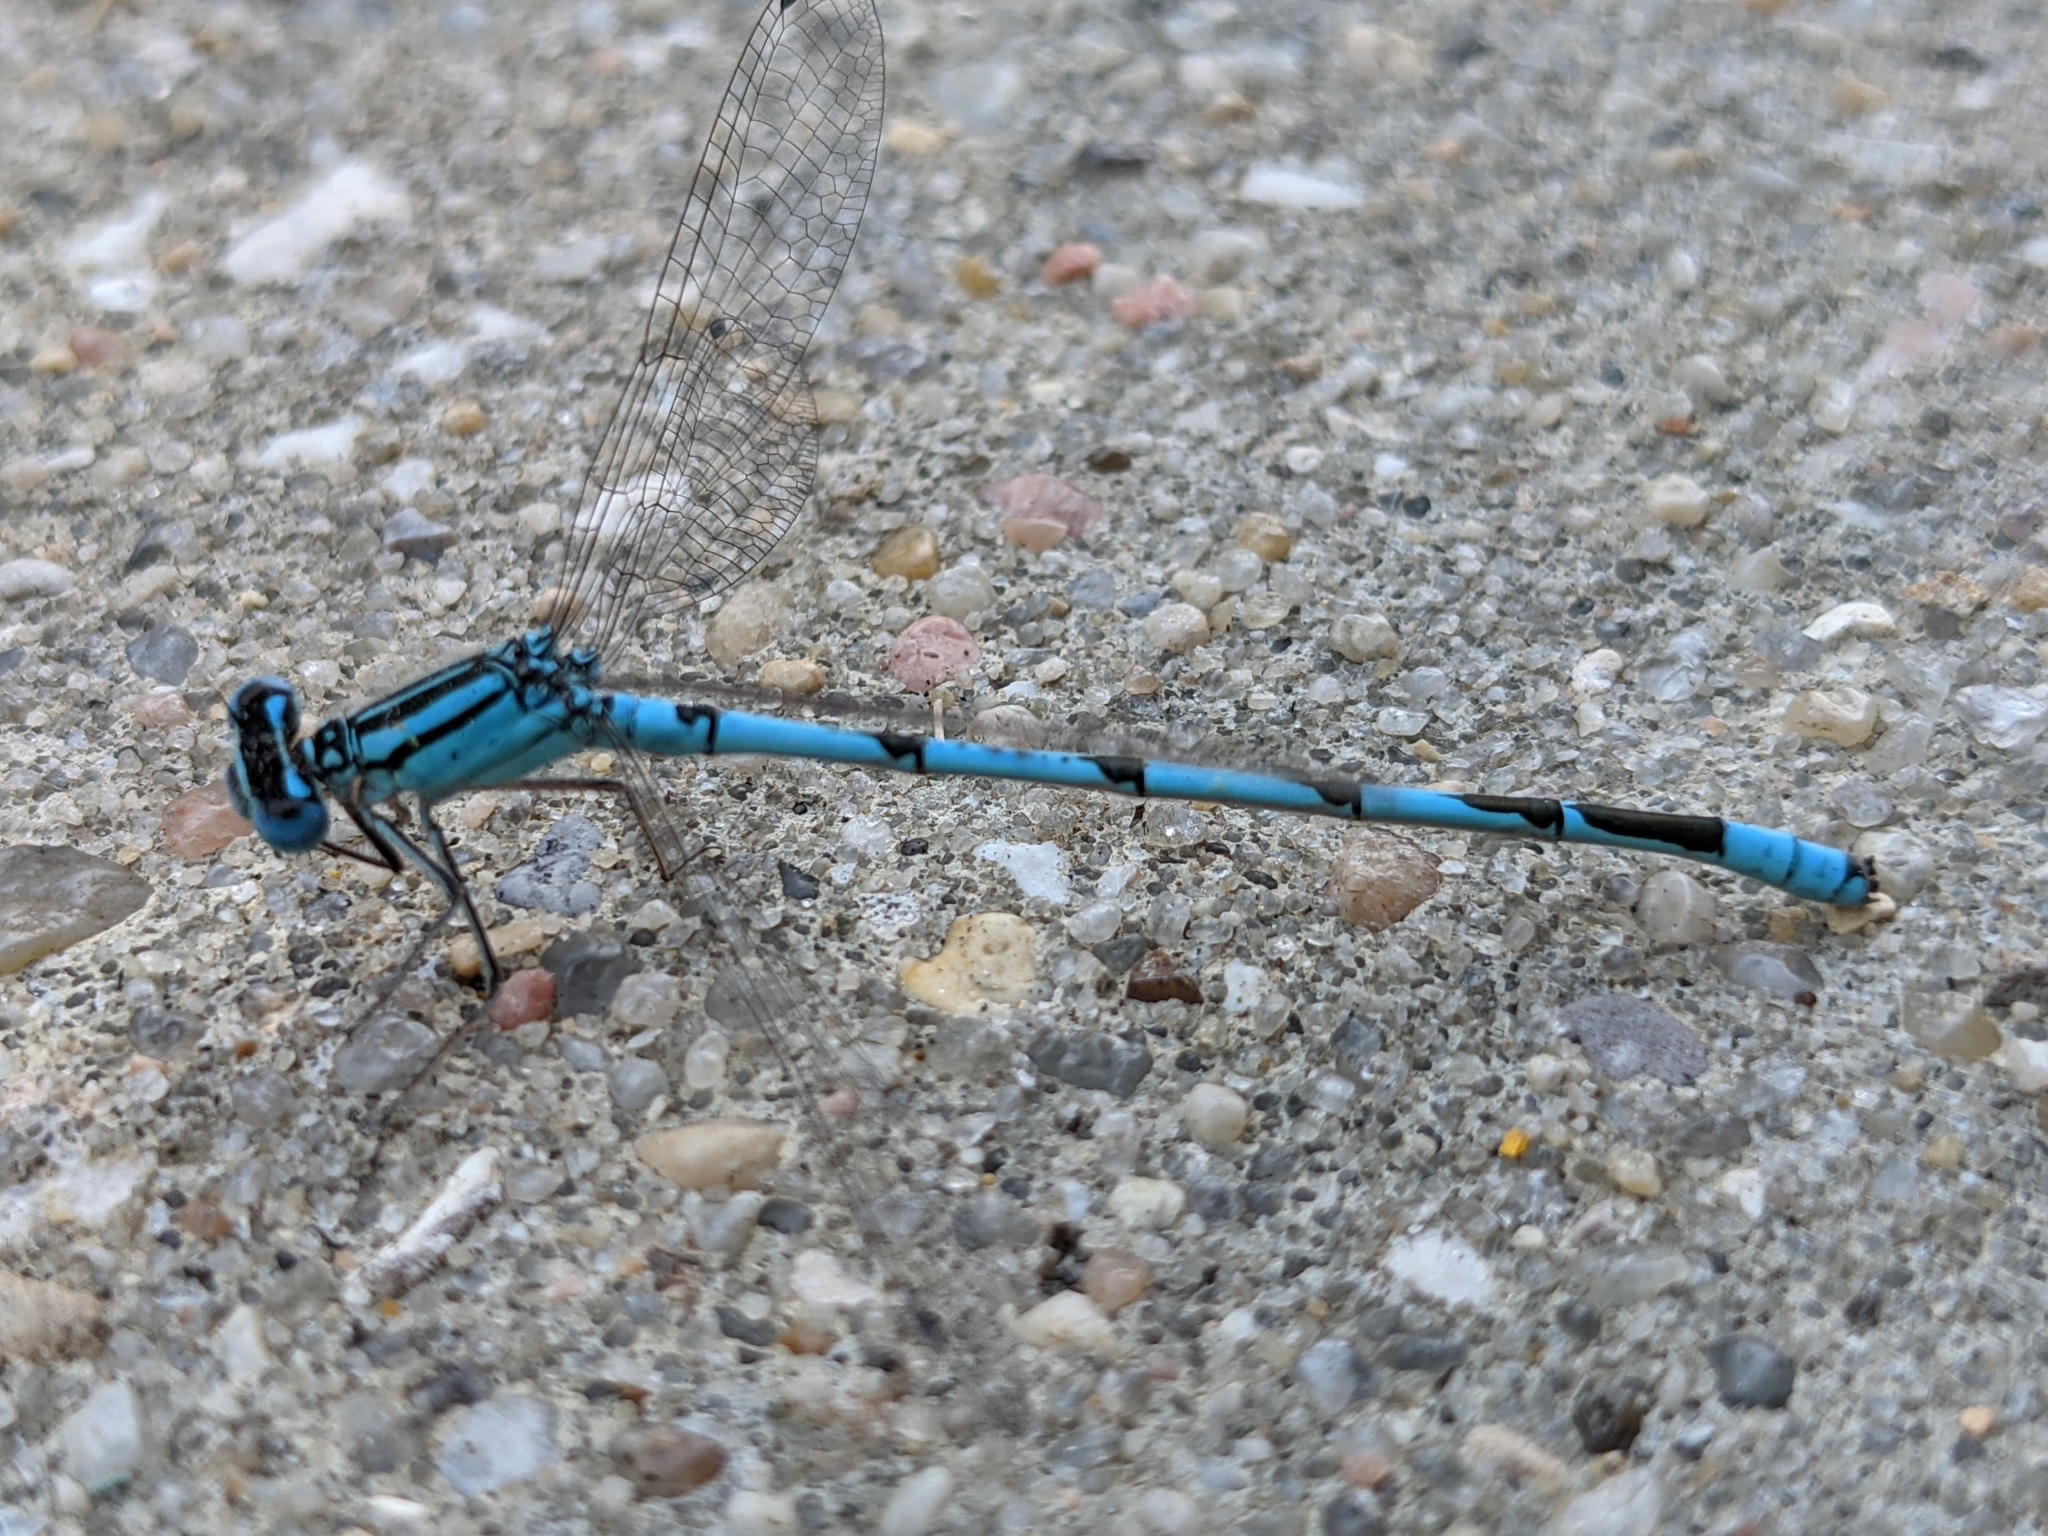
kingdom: Animalia
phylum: Arthropoda
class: Insecta
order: Odonata
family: Coenagrionidae
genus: Enallagma
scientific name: Enallagma durum
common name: Big bluet
